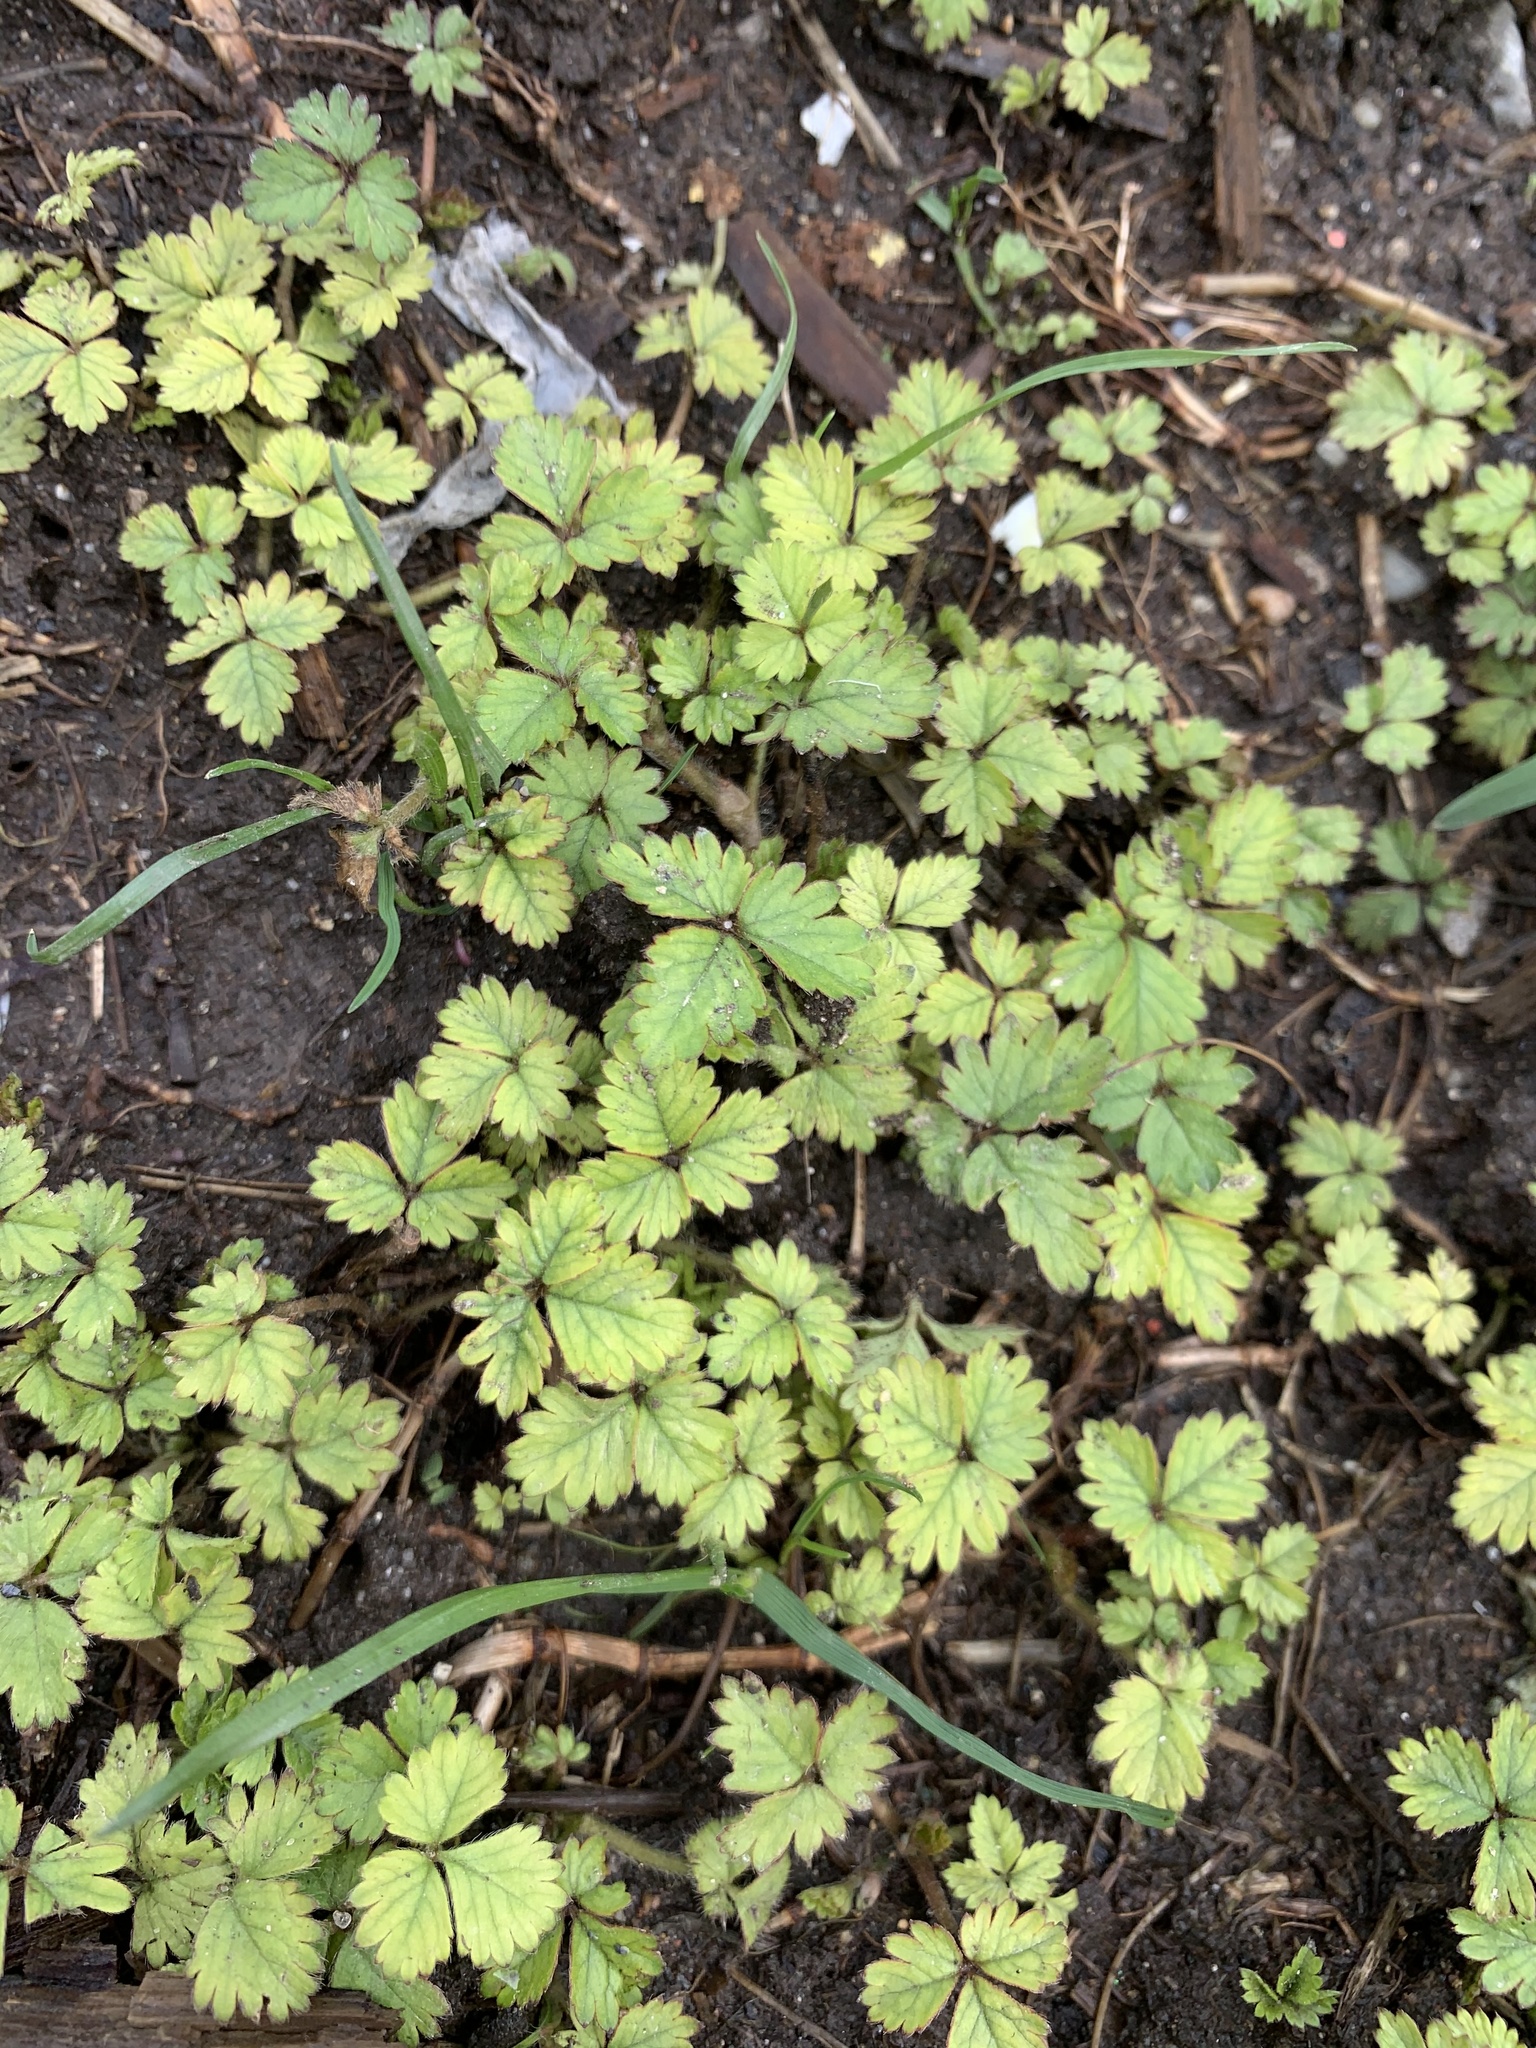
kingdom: Plantae
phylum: Tracheophyta
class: Magnoliopsida
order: Rosales
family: Rosaceae
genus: Potentilla
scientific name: Potentilla indica
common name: Yellow-flowered strawberry
